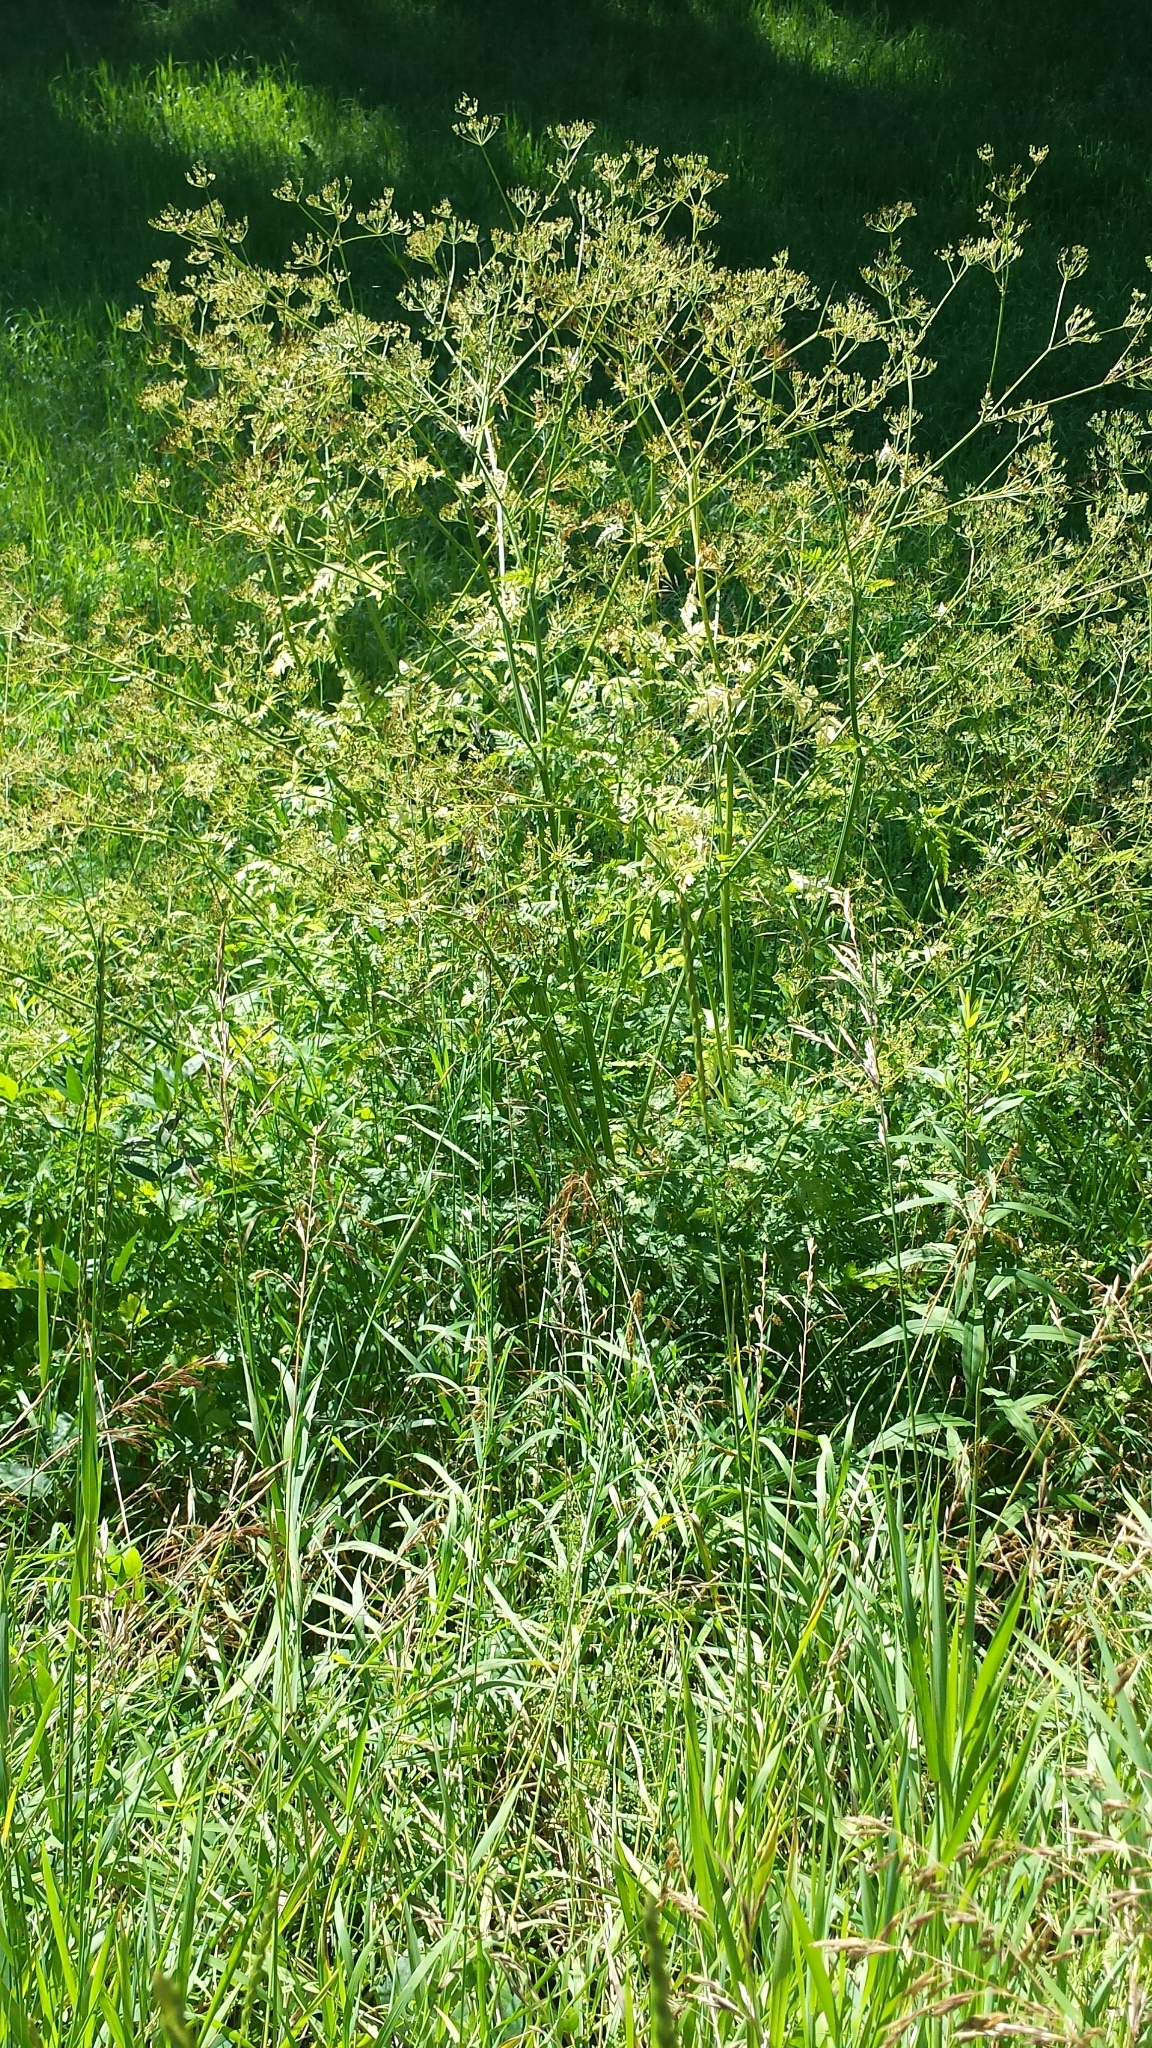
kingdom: Plantae
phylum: Tracheophyta
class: Magnoliopsida
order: Apiales
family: Apiaceae
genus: Anthriscus
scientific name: Anthriscus sylvestris
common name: Cow parsley
